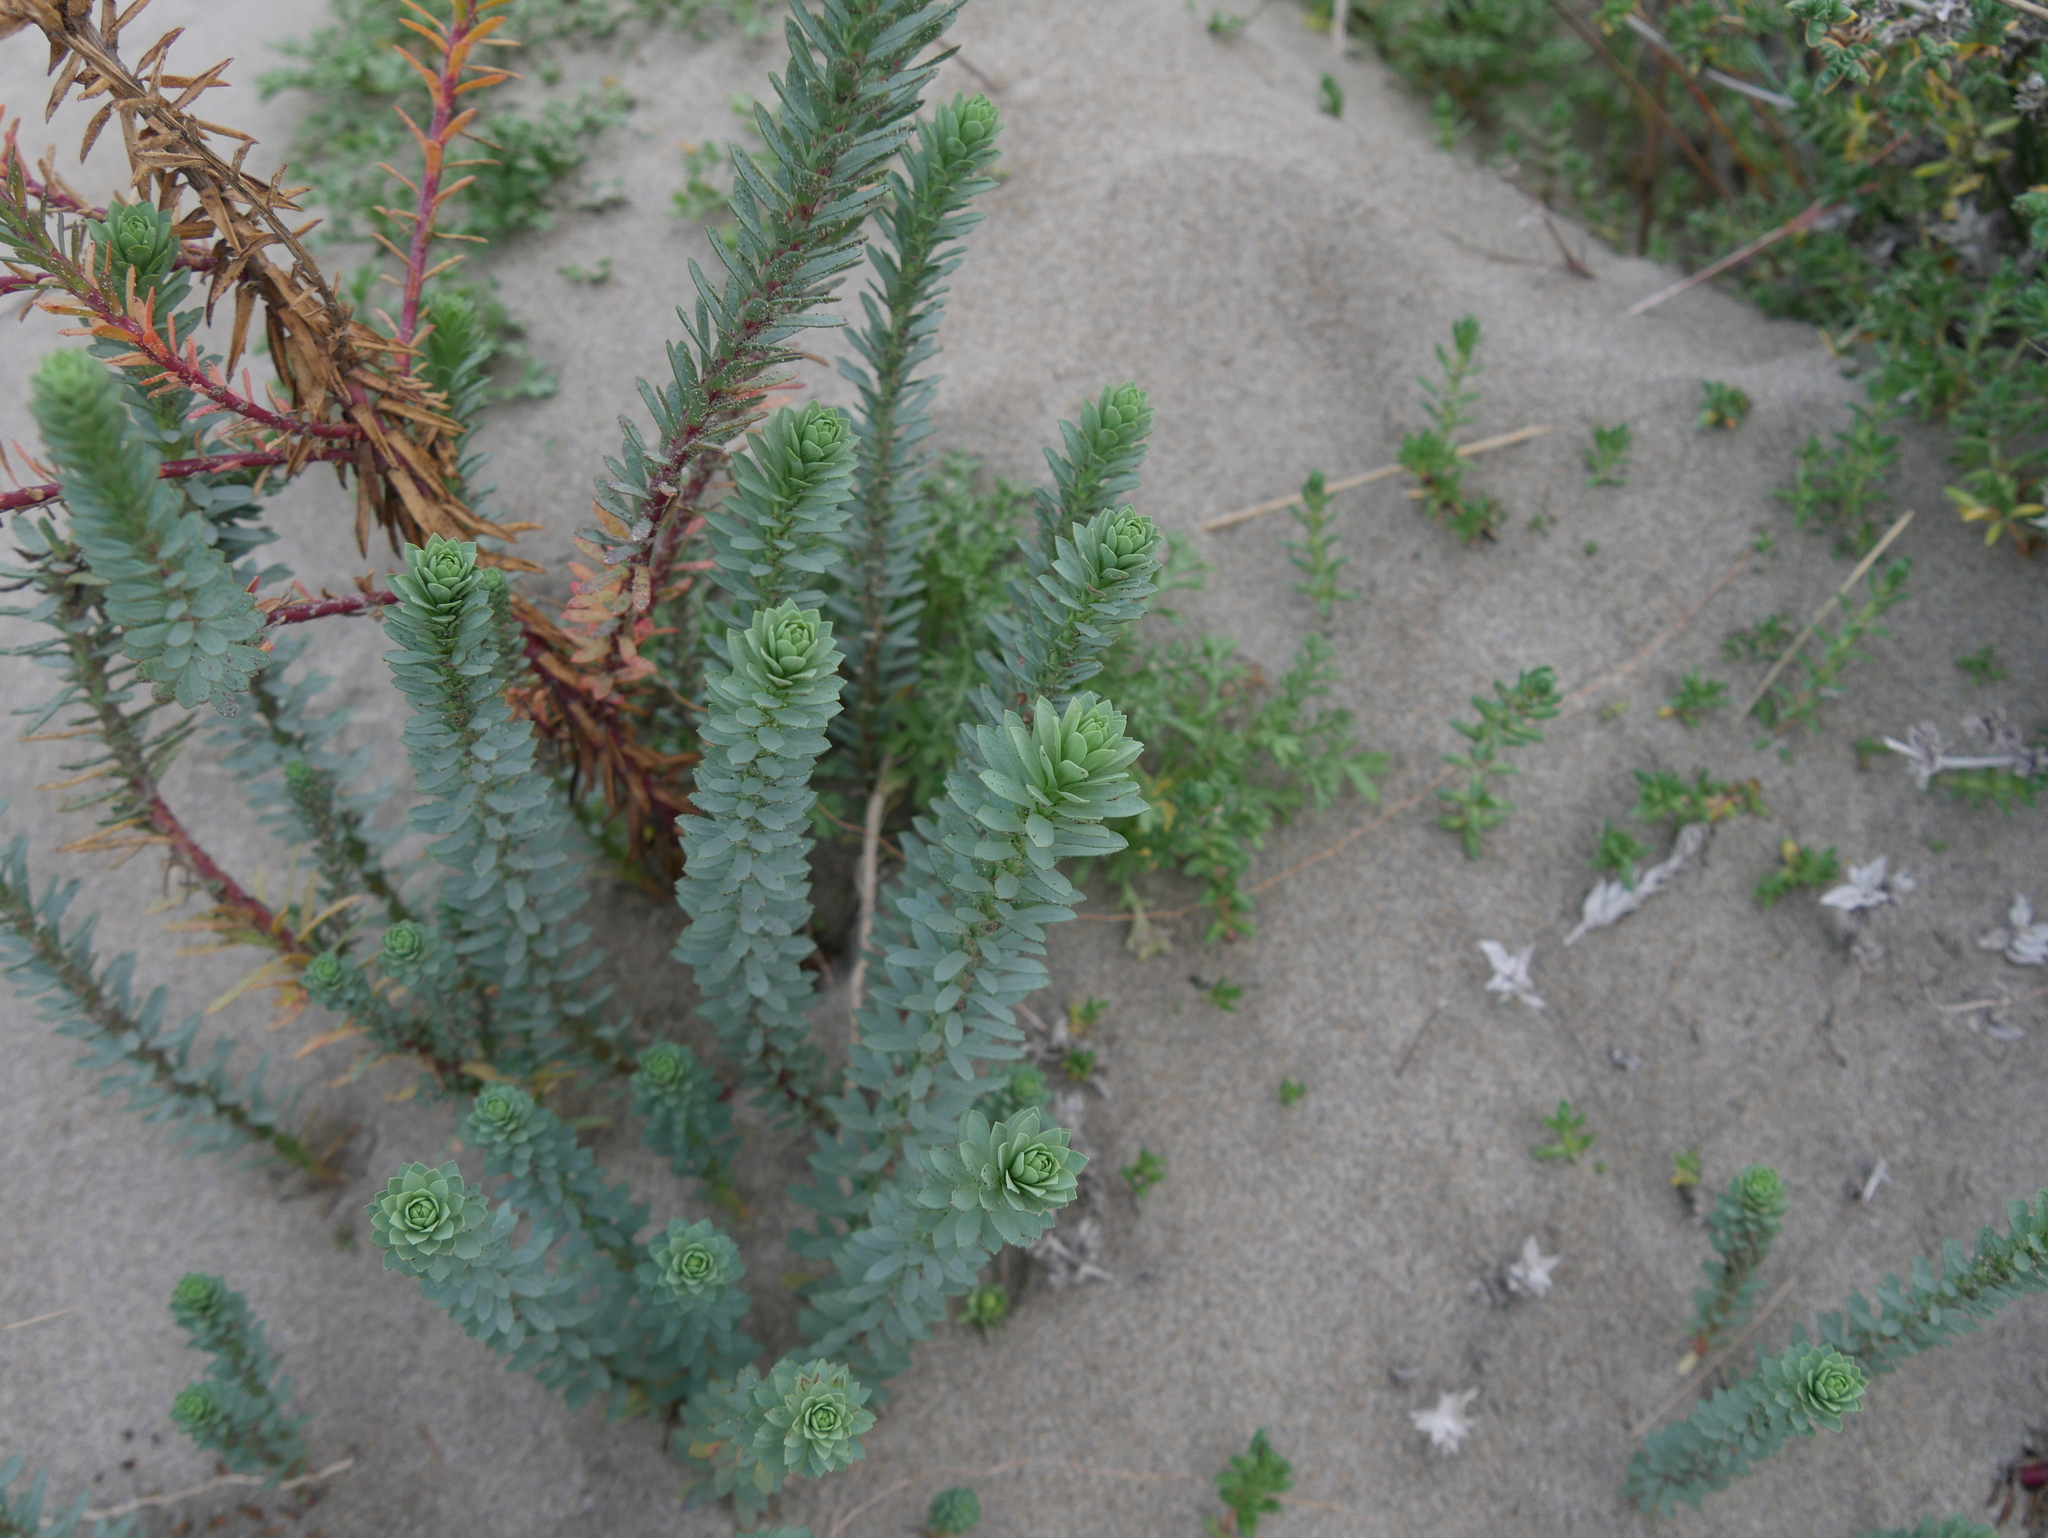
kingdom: Plantae
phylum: Tracheophyta
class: Magnoliopsida
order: Malpighiales
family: Euphorbiaceae
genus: Euphorbia
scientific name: Euphorbia paralias
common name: Sea spurge
